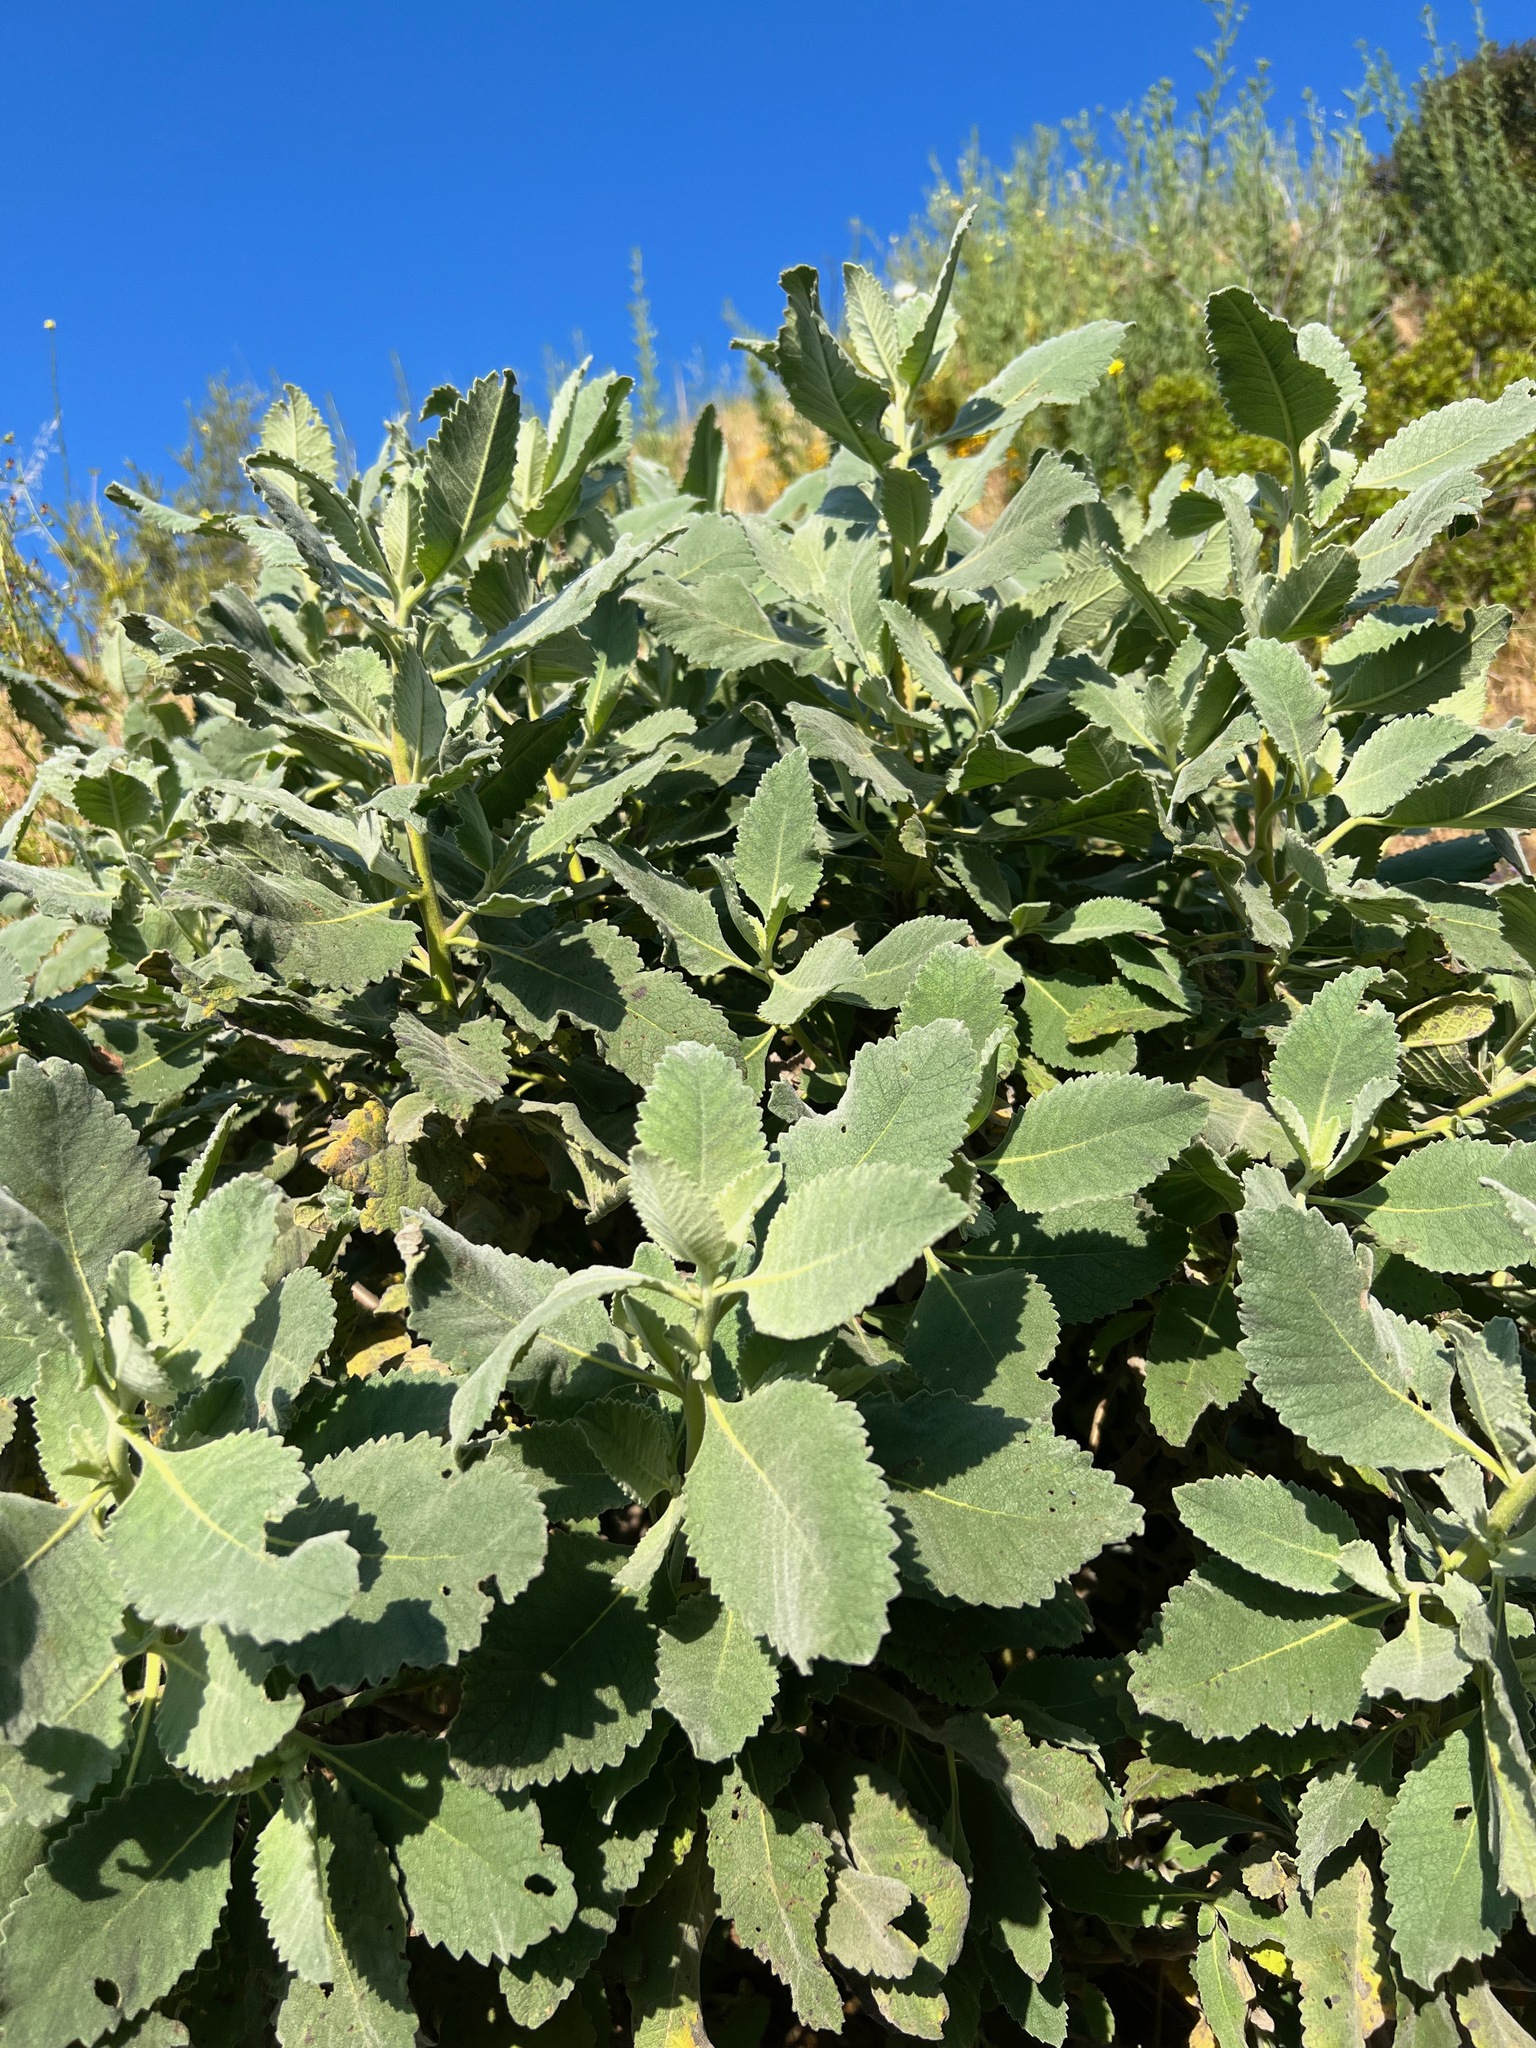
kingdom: Plantae
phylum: Tracheophyta
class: Magnoliopsida
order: Boraginales
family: Namaceae
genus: Eriodictyon
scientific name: Eriodictyon crassifolium
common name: Thick-leaf yerba-santa
